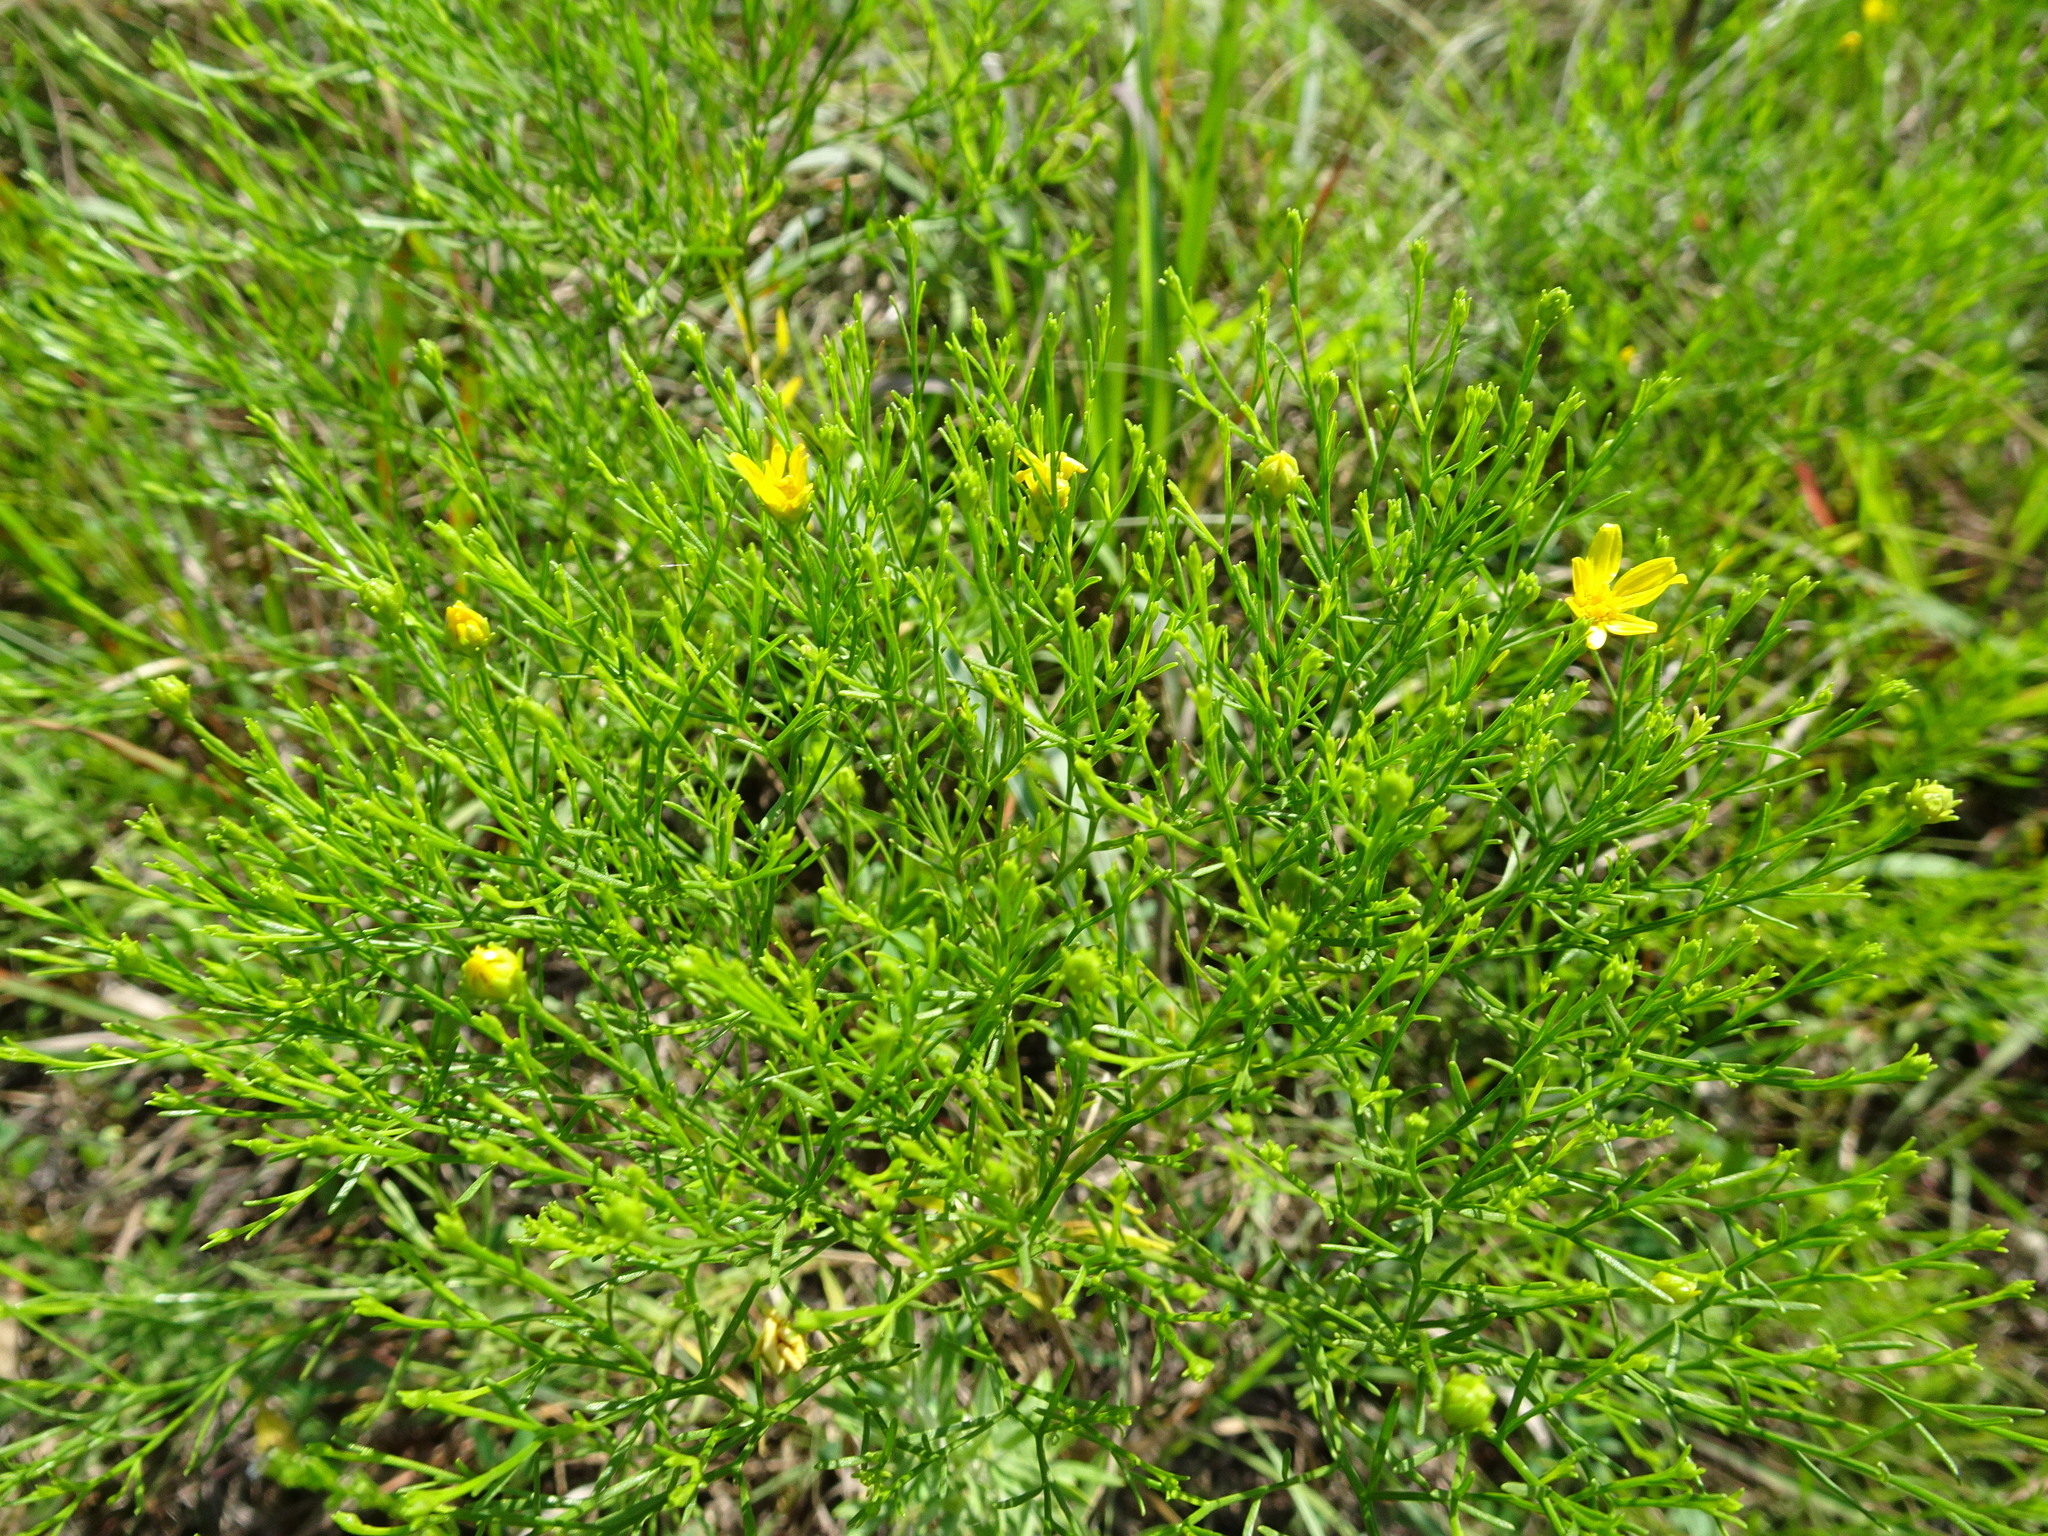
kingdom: Plantae
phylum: Tracheophyta
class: Magnoliopsida
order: Asterales
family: Asteraceae
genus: Amphiachyris
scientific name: Amphiachyris dracunculoides
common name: Broomweed
